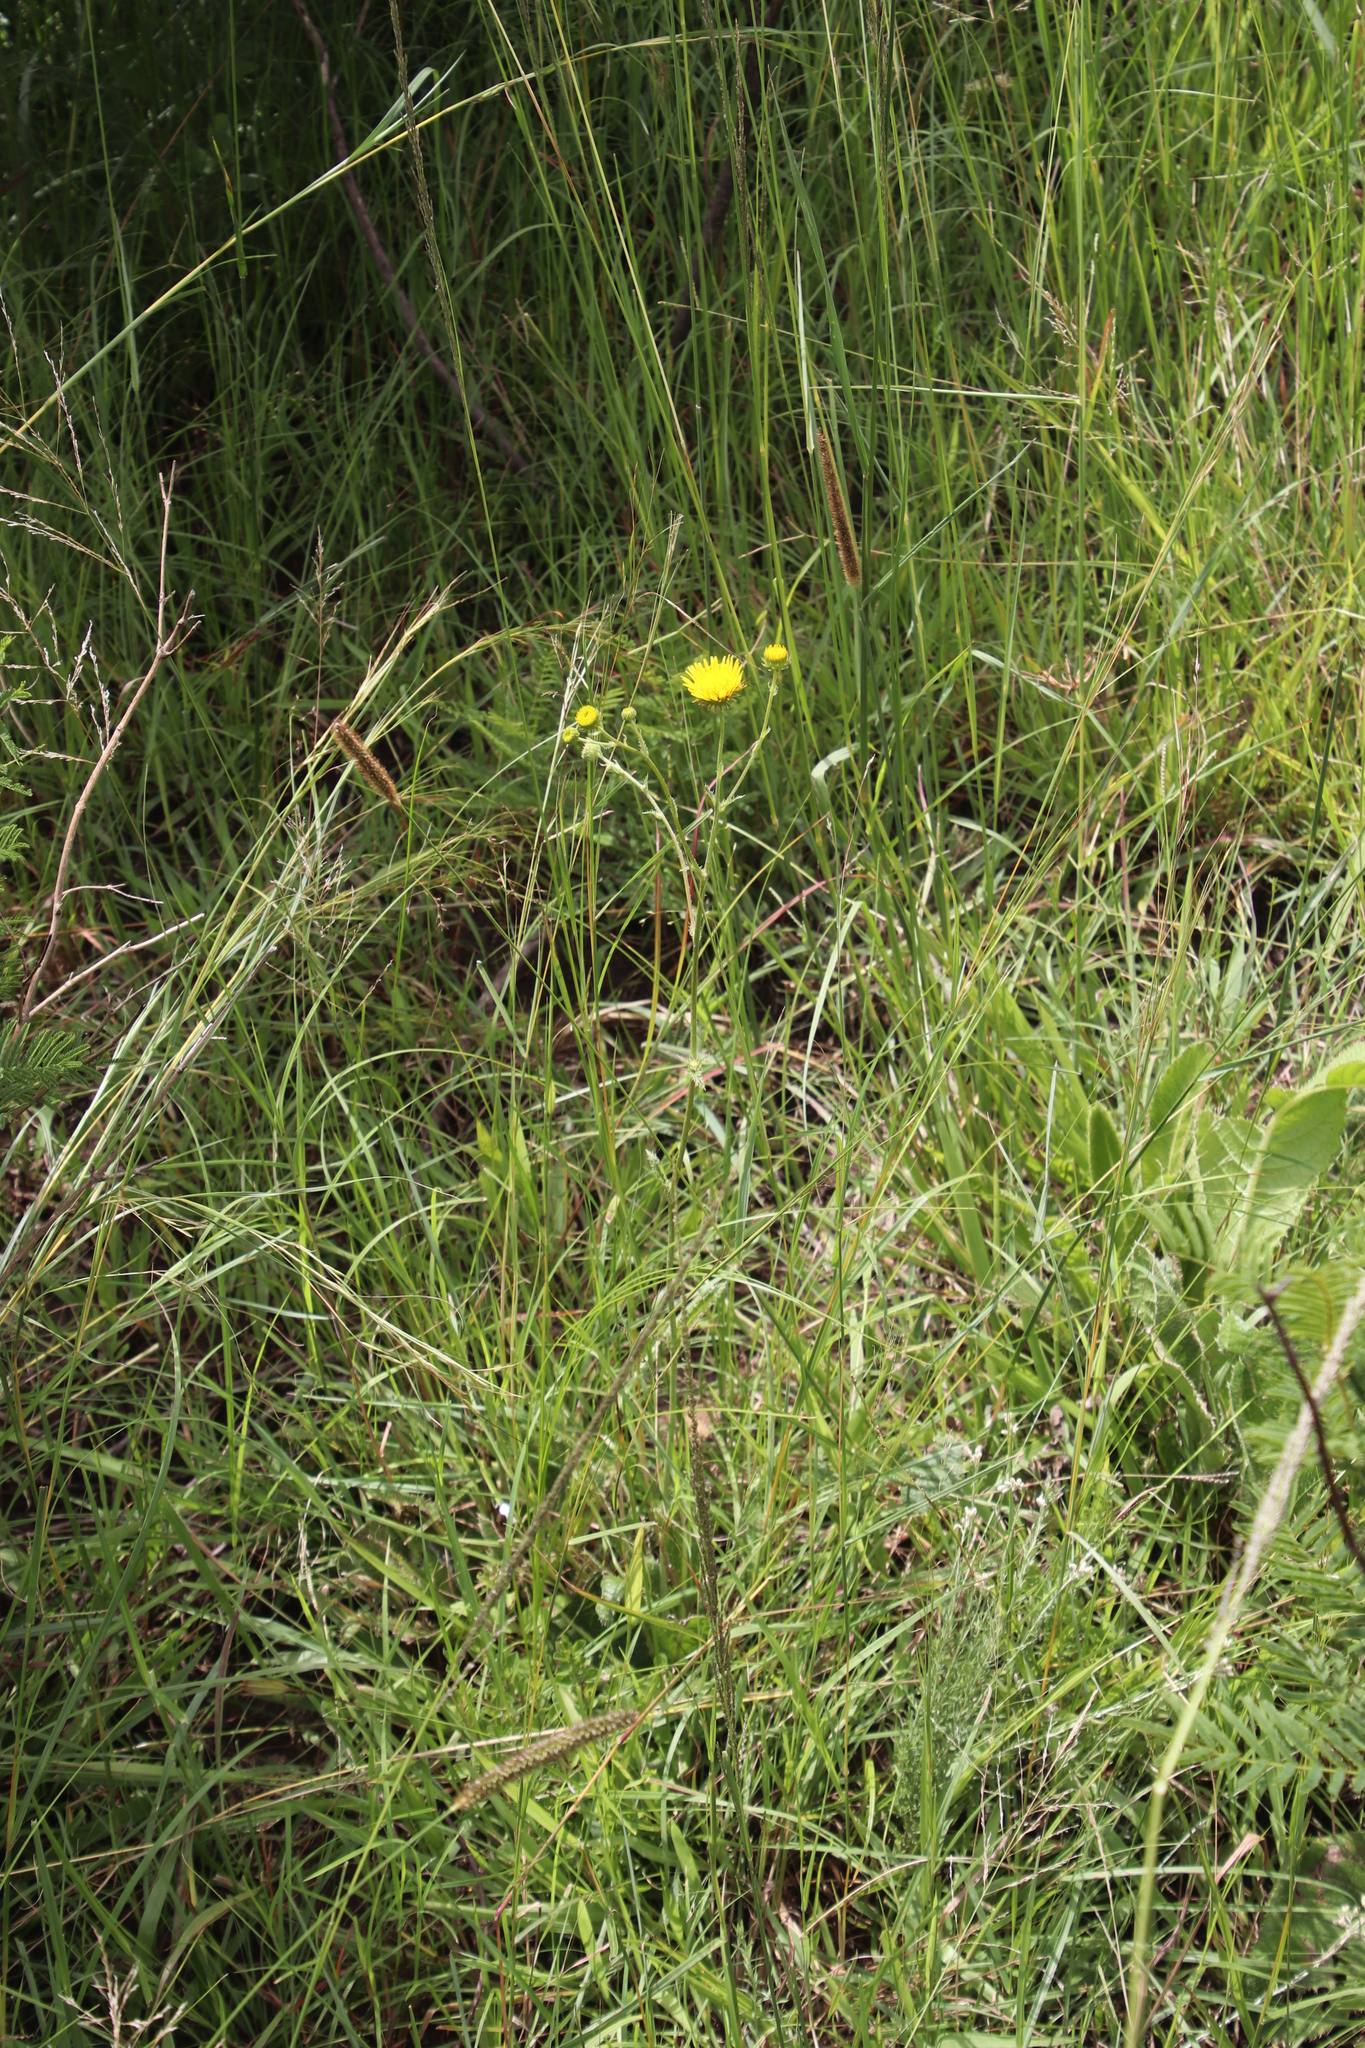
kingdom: Plantae
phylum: Tracheophyta
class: Magnoliopsida
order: Asterales
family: Asteraceae
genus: Berkheya
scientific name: Berkheya setifera
